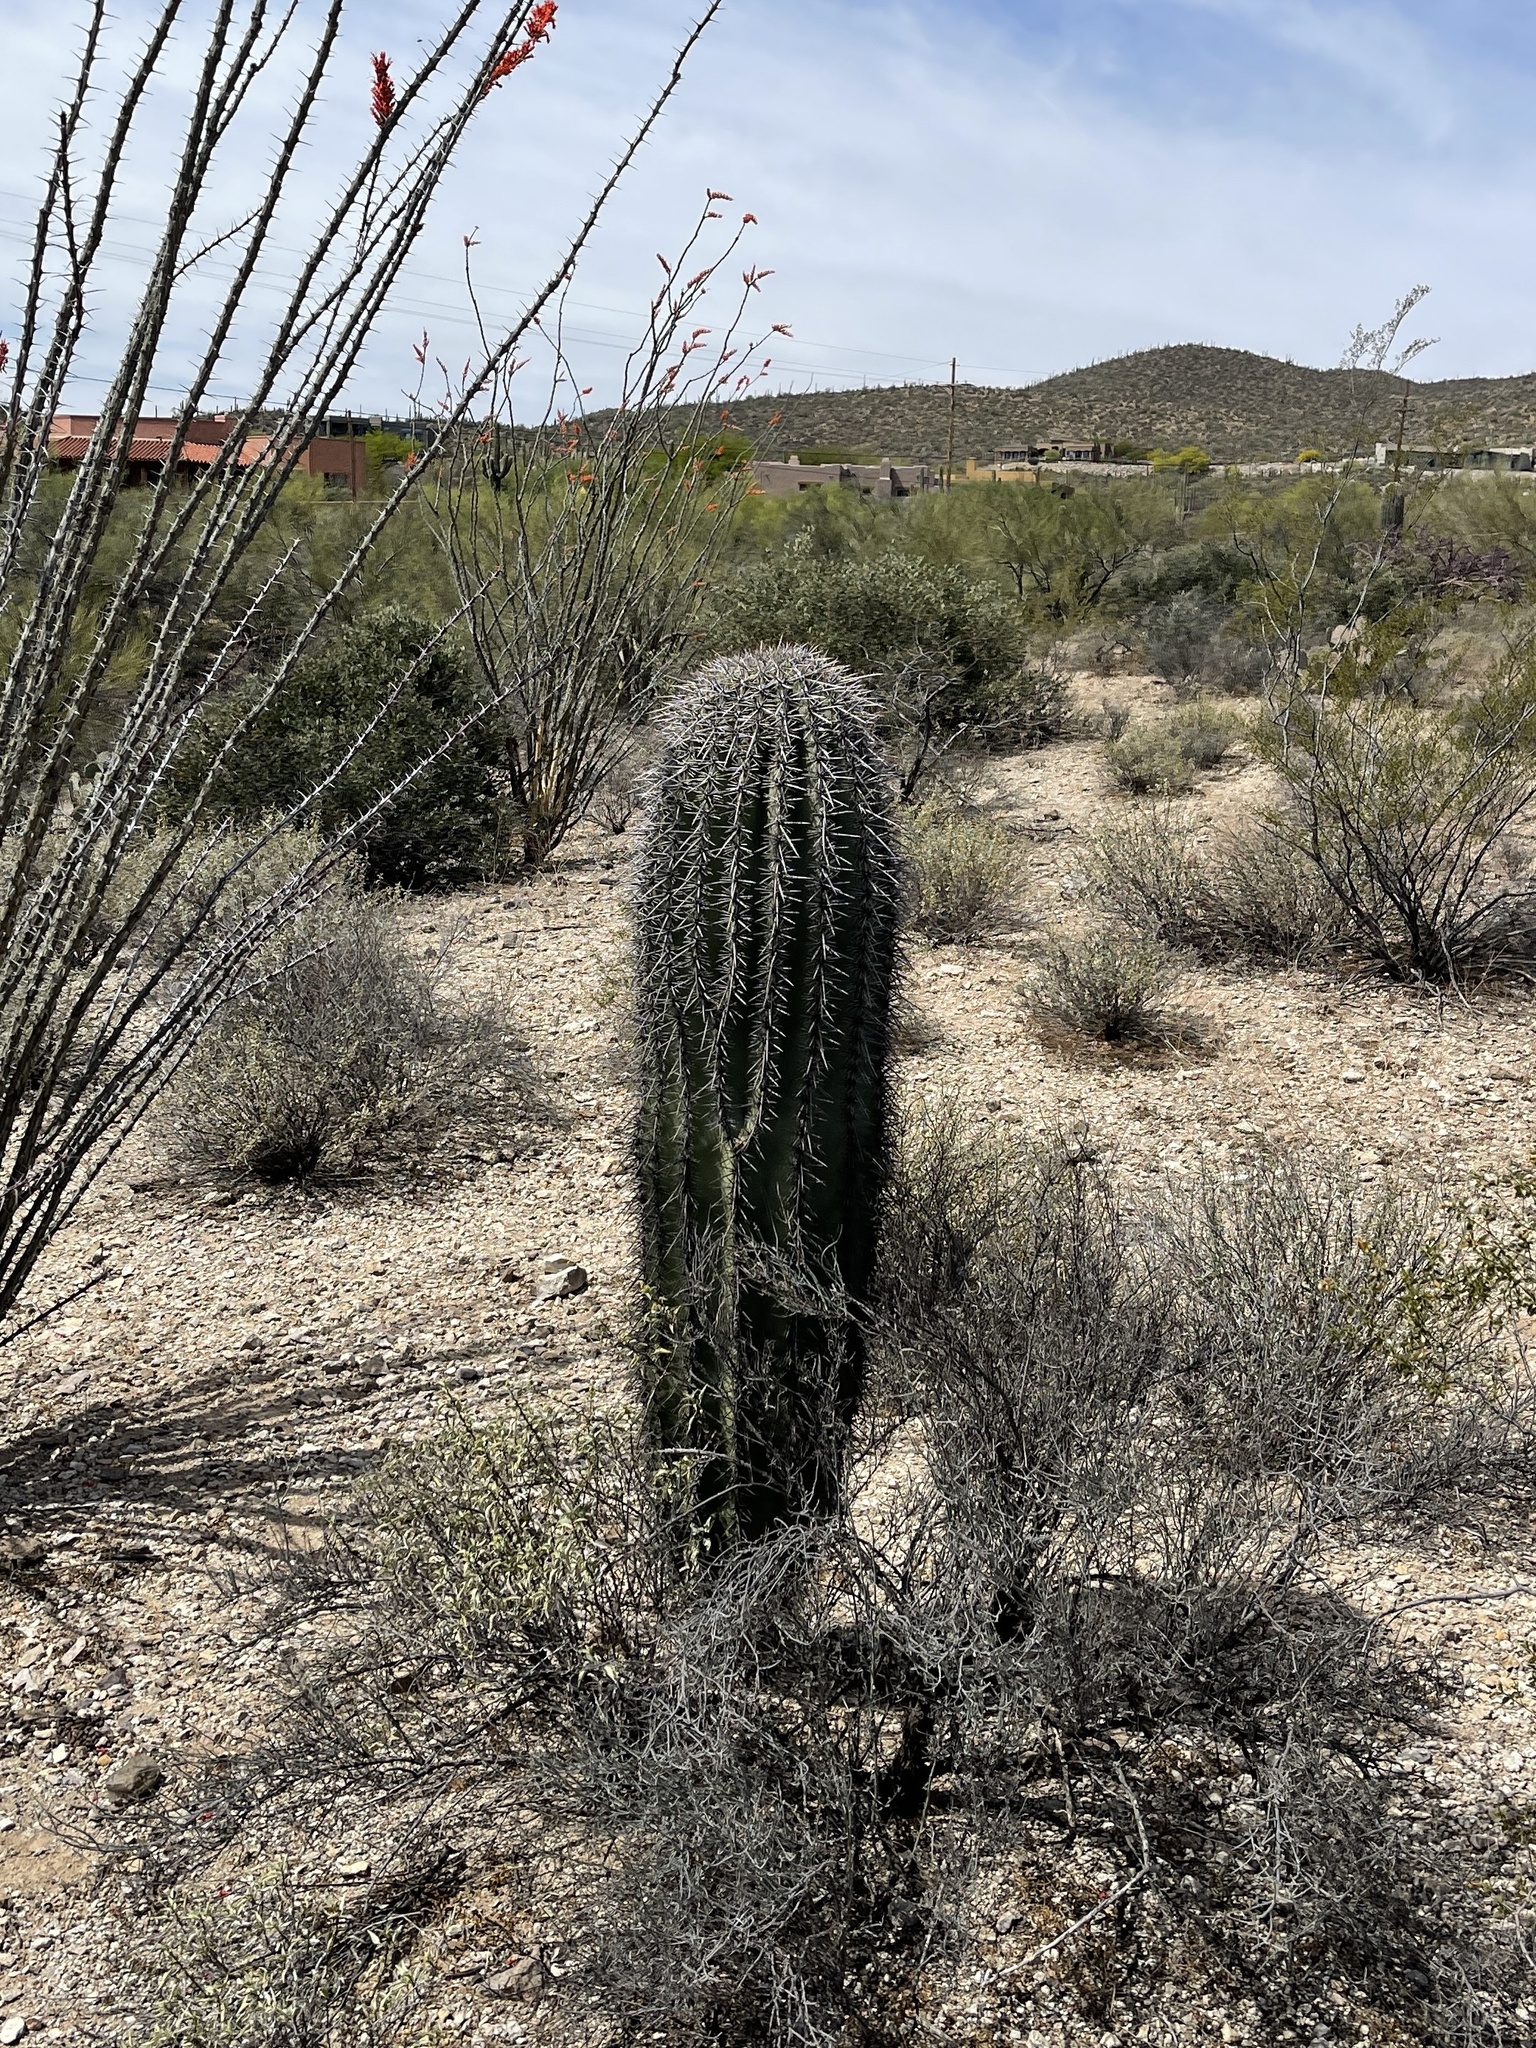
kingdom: Plantae
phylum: Tracheophyta
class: Magnoliopsida
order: Caryophyllales
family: Cactaceae
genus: Carnegiea
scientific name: Carnegiea gigantea
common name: Saguaro
